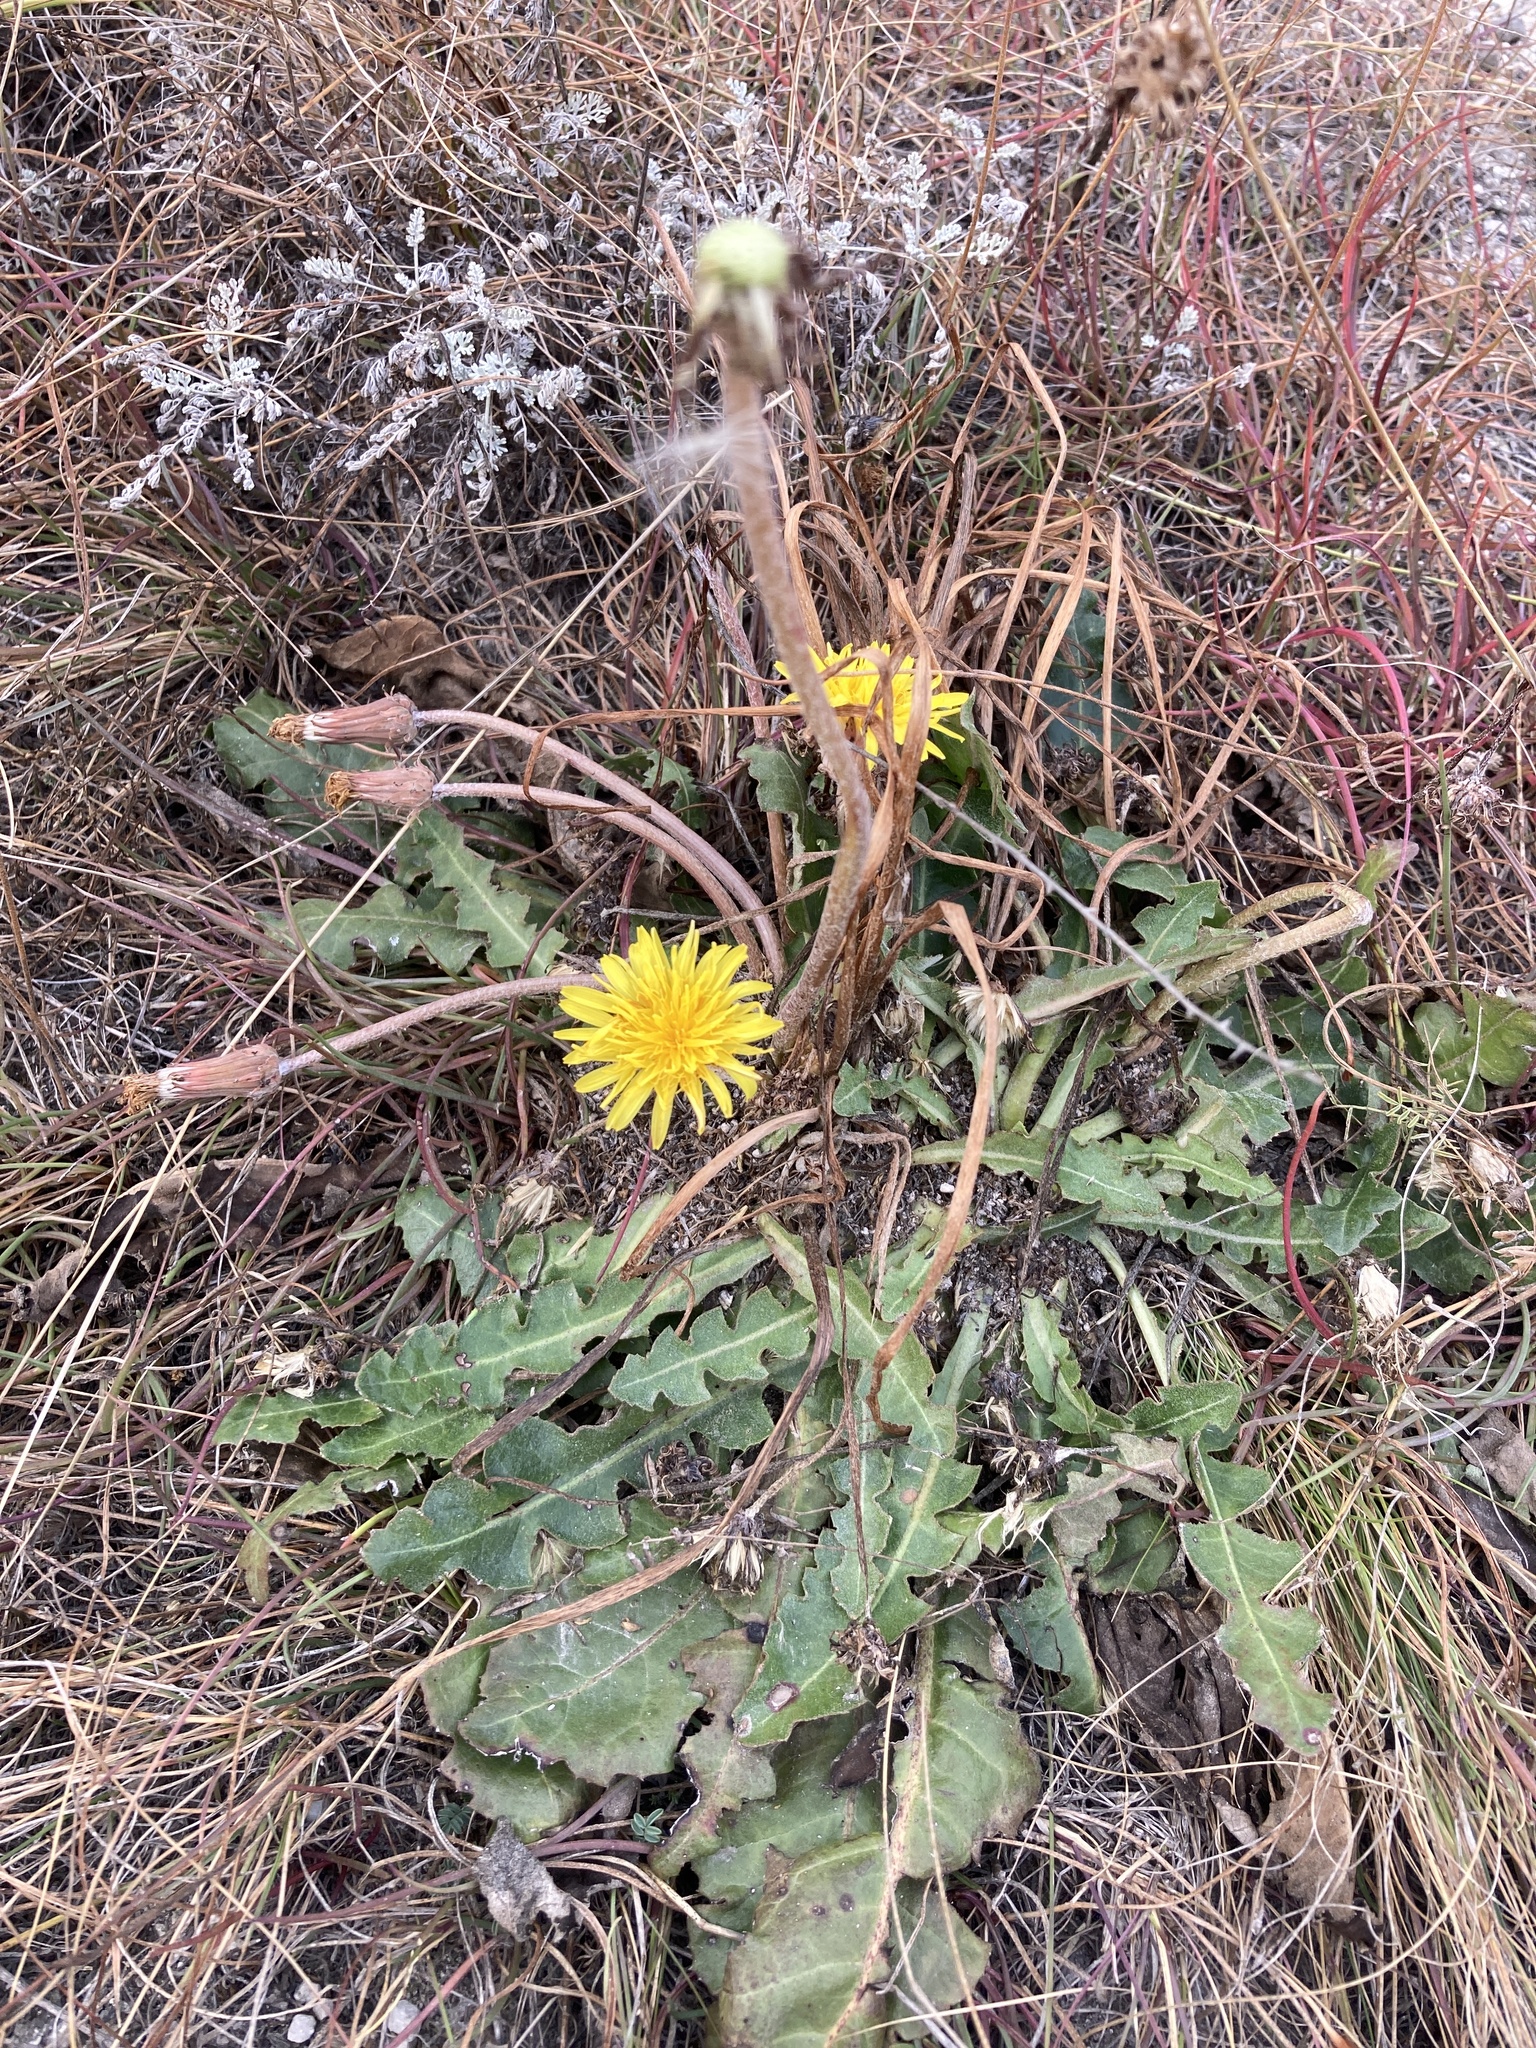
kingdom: Plantae
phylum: Tracheophyta
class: Magnoliopsida
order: Asterales
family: Asteraceae
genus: Taraxacum
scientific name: Taraxacum serotinum
